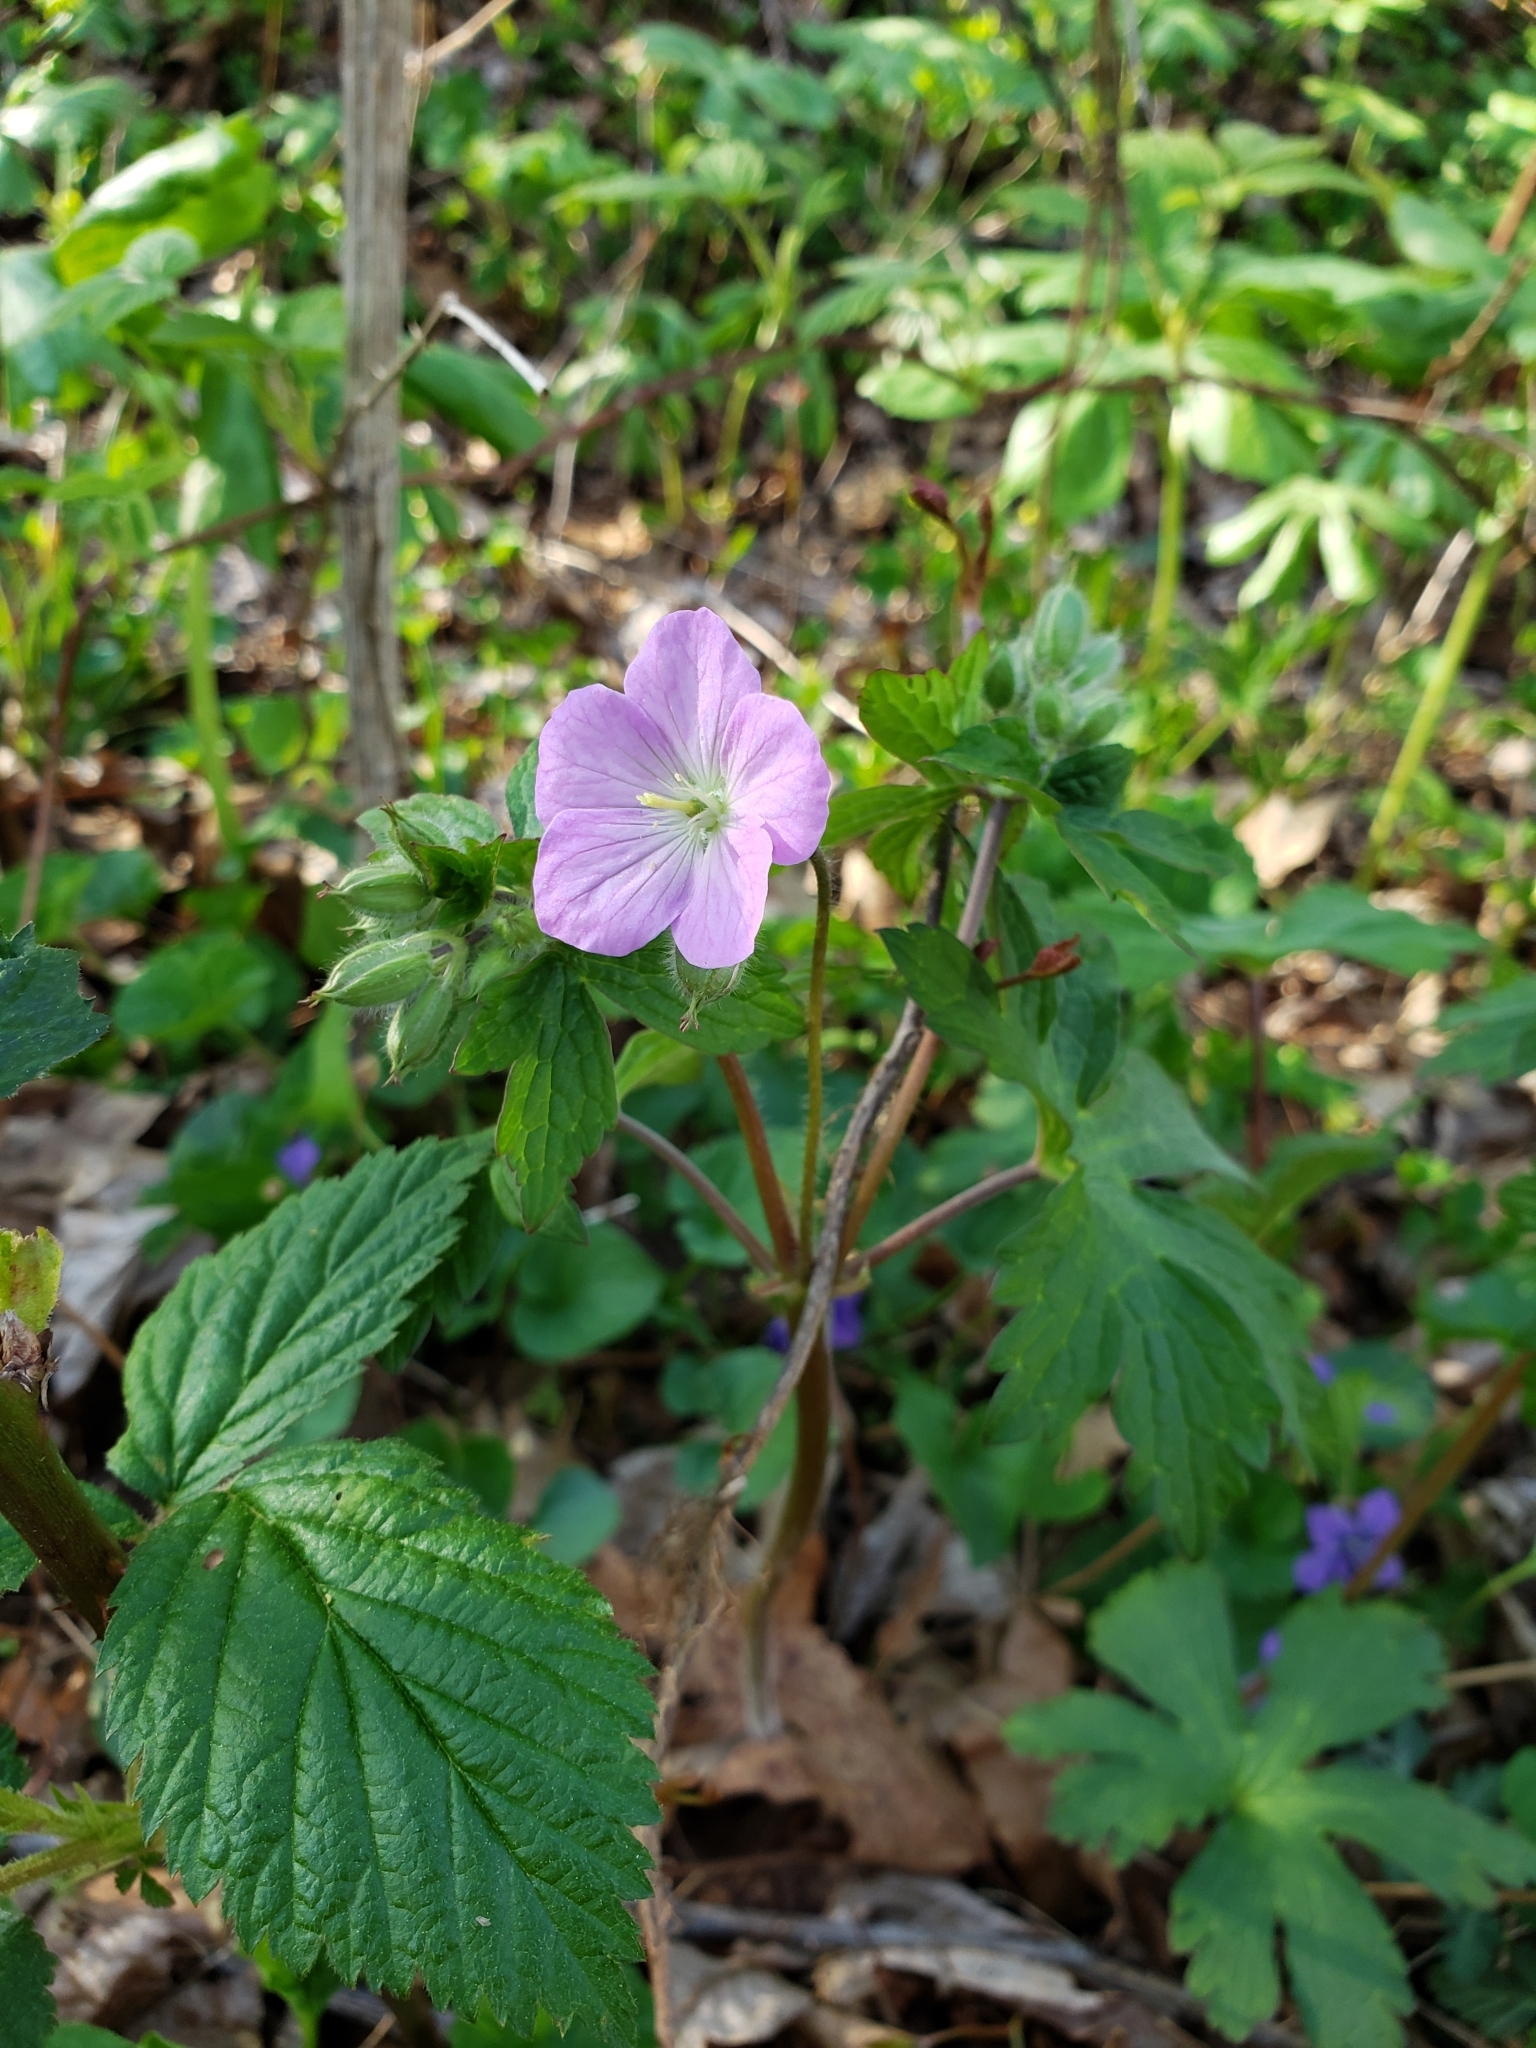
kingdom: Plantae
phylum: Tracheophyta
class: Magnoliopsida
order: Geraniales
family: Geraniaceae
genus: Geranium
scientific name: Geranium maculatum
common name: Spotted geranium
